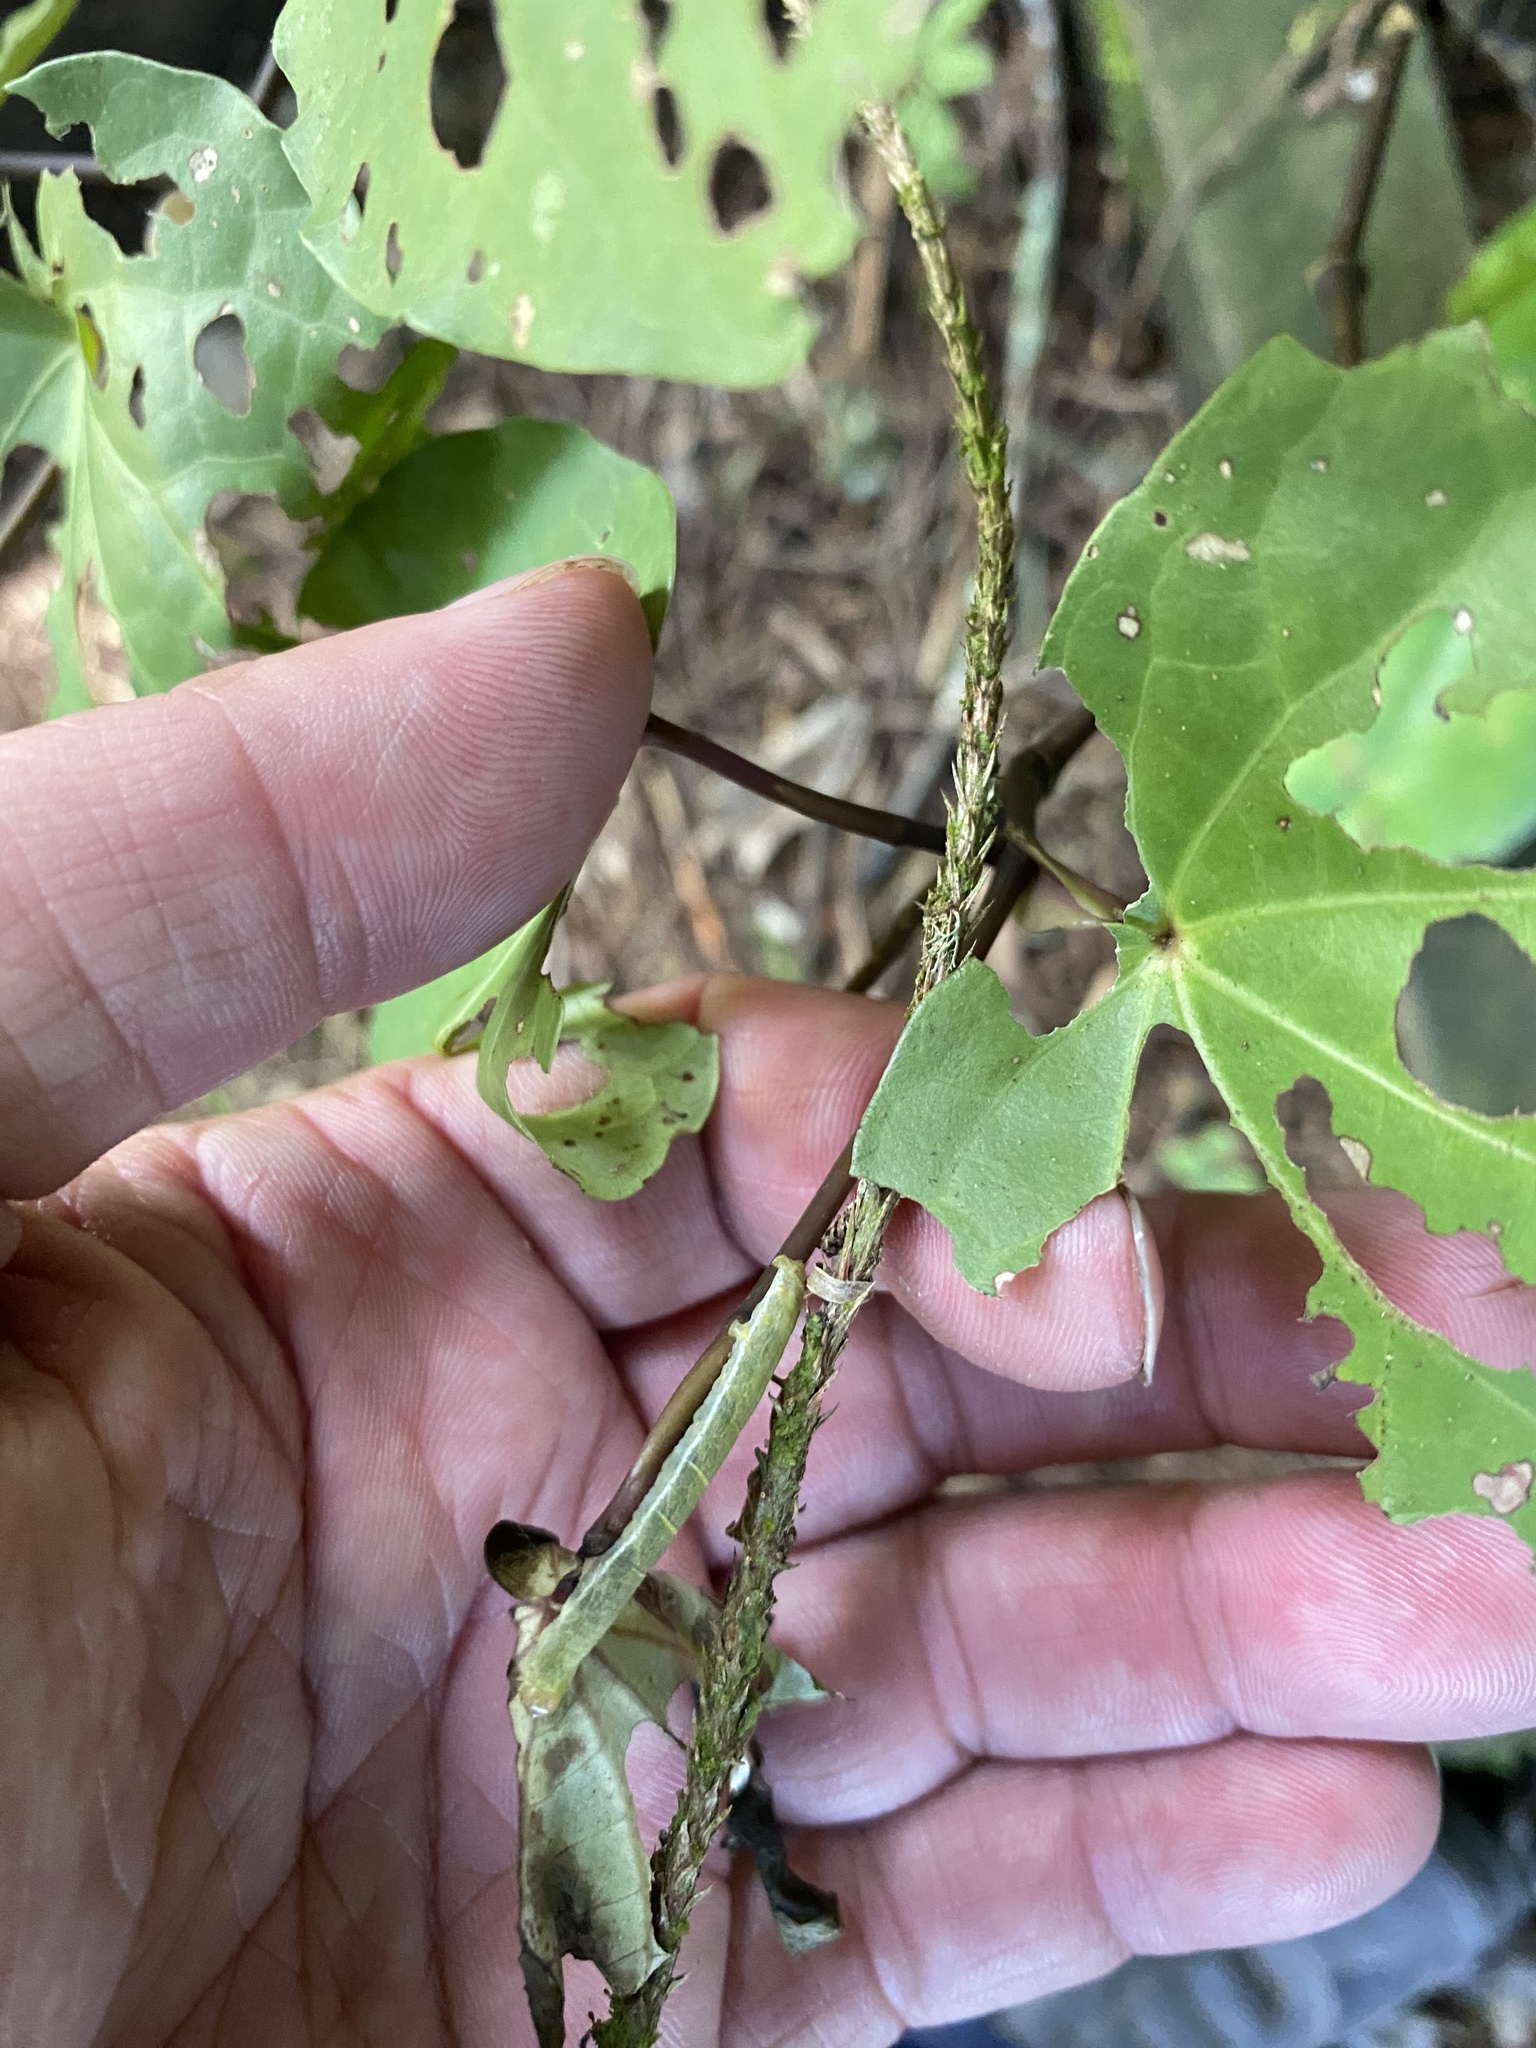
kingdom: Animalia
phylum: Arthropoda
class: Insecta
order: Lepidoptera
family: Geometridae
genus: Cleora
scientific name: Cleora scriptaria
